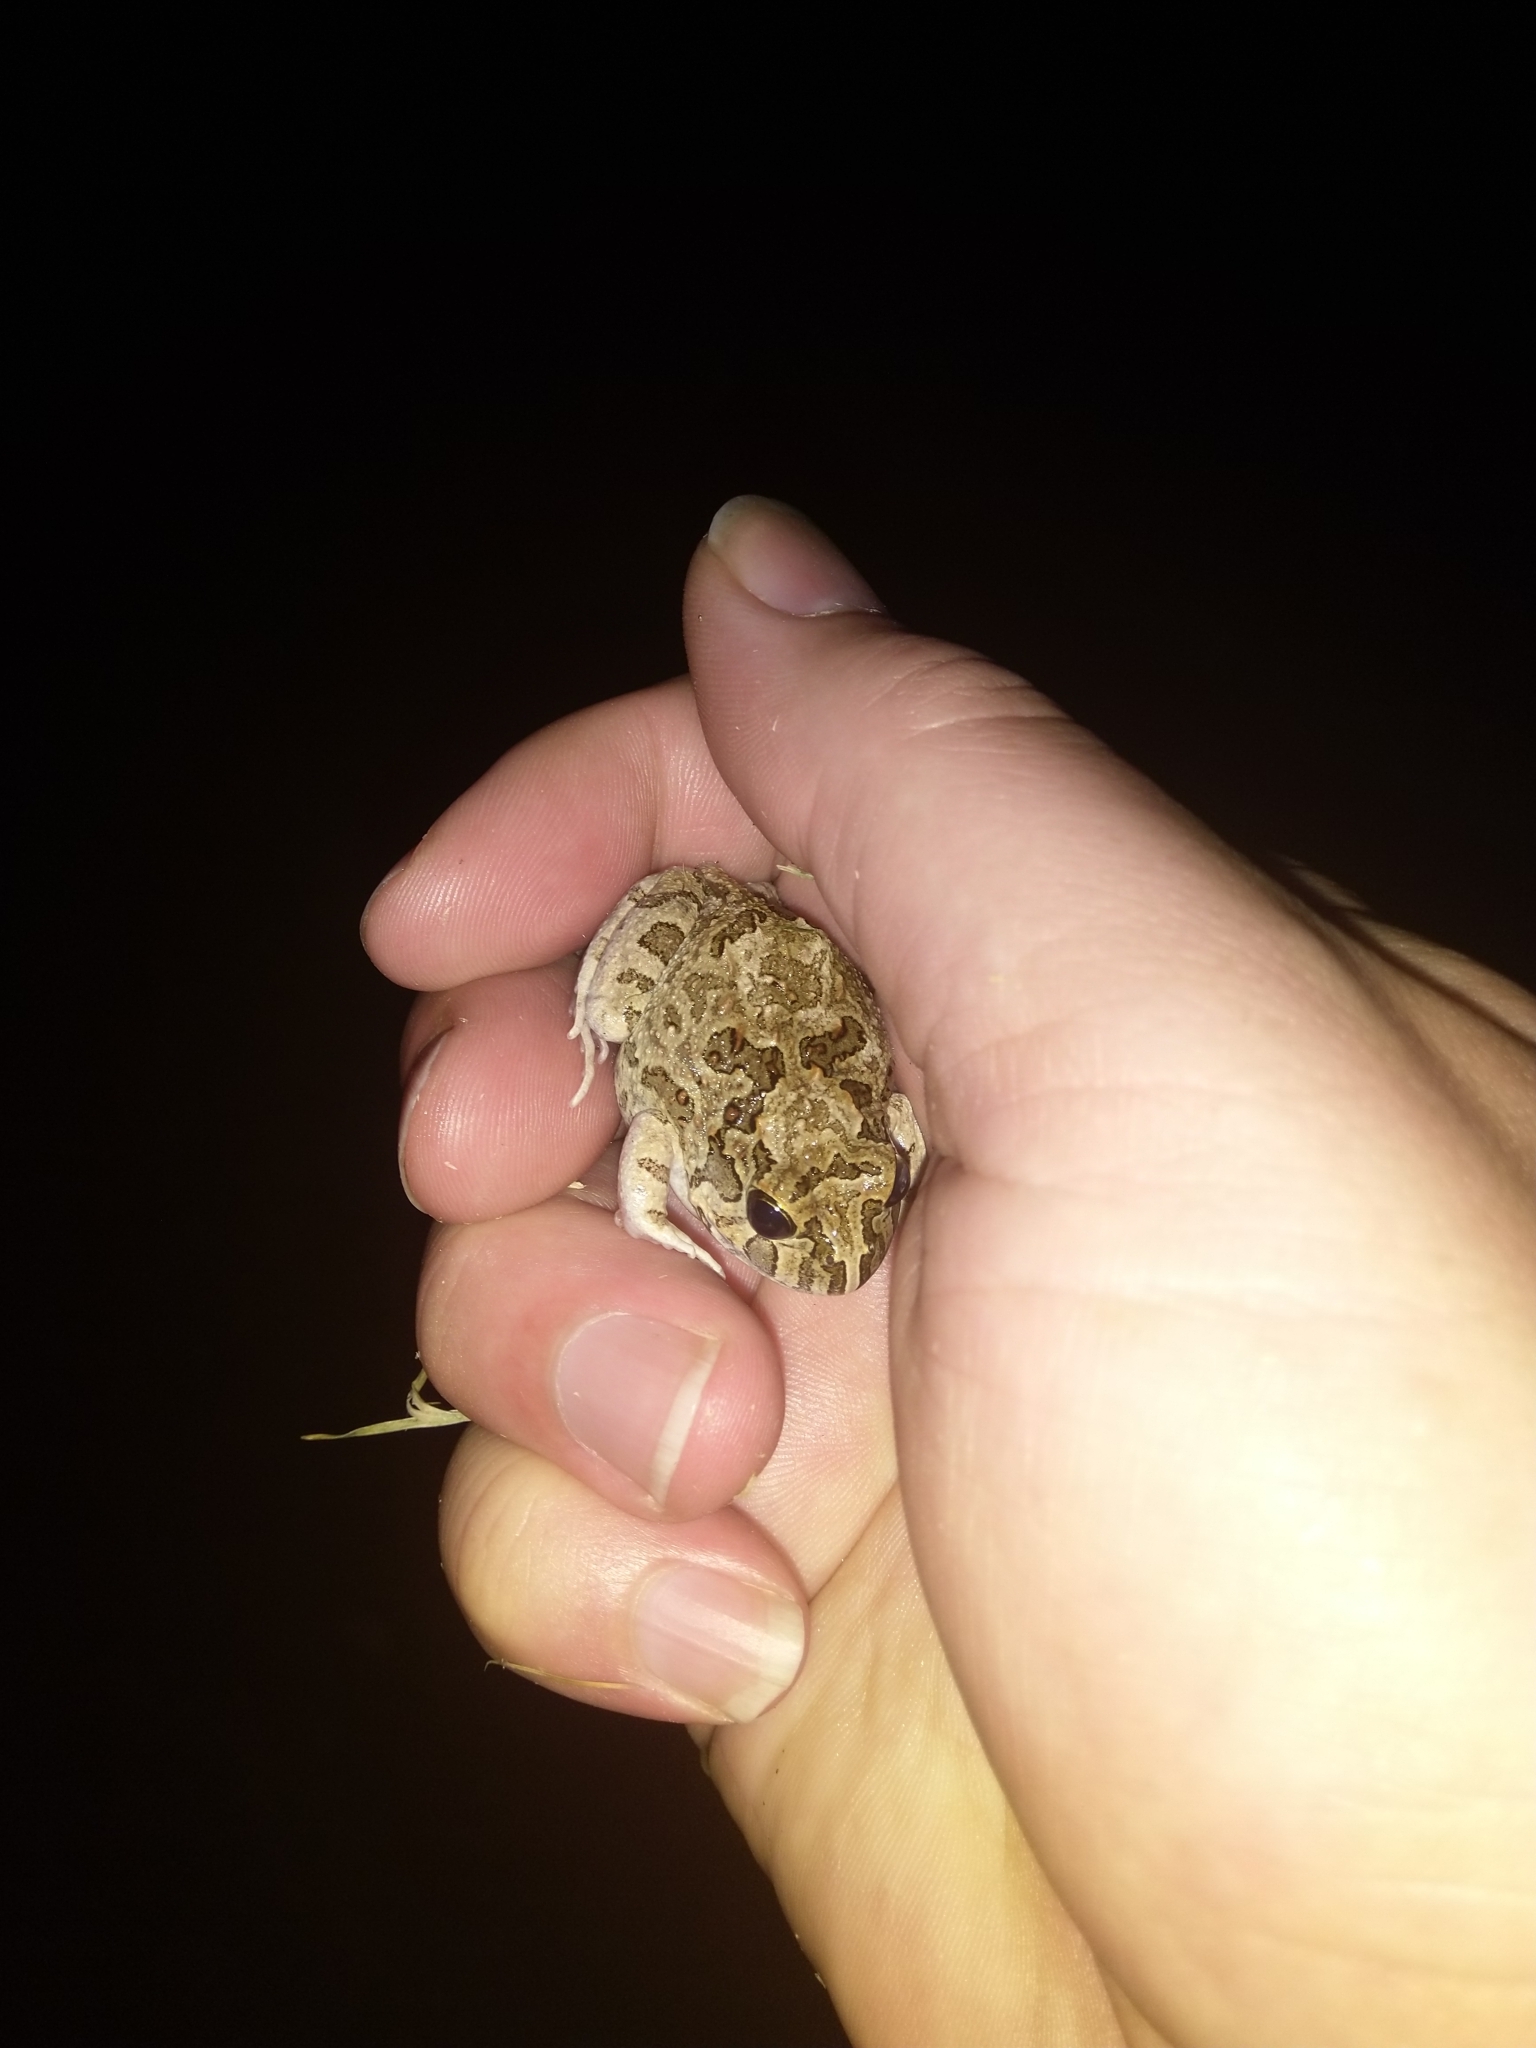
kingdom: Animalia
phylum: Chordata
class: Amphibia
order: Anura
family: Limnodynastidae
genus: Platyplectrum
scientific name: Platyplectrum ornatum
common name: Ornate burrowing frog
